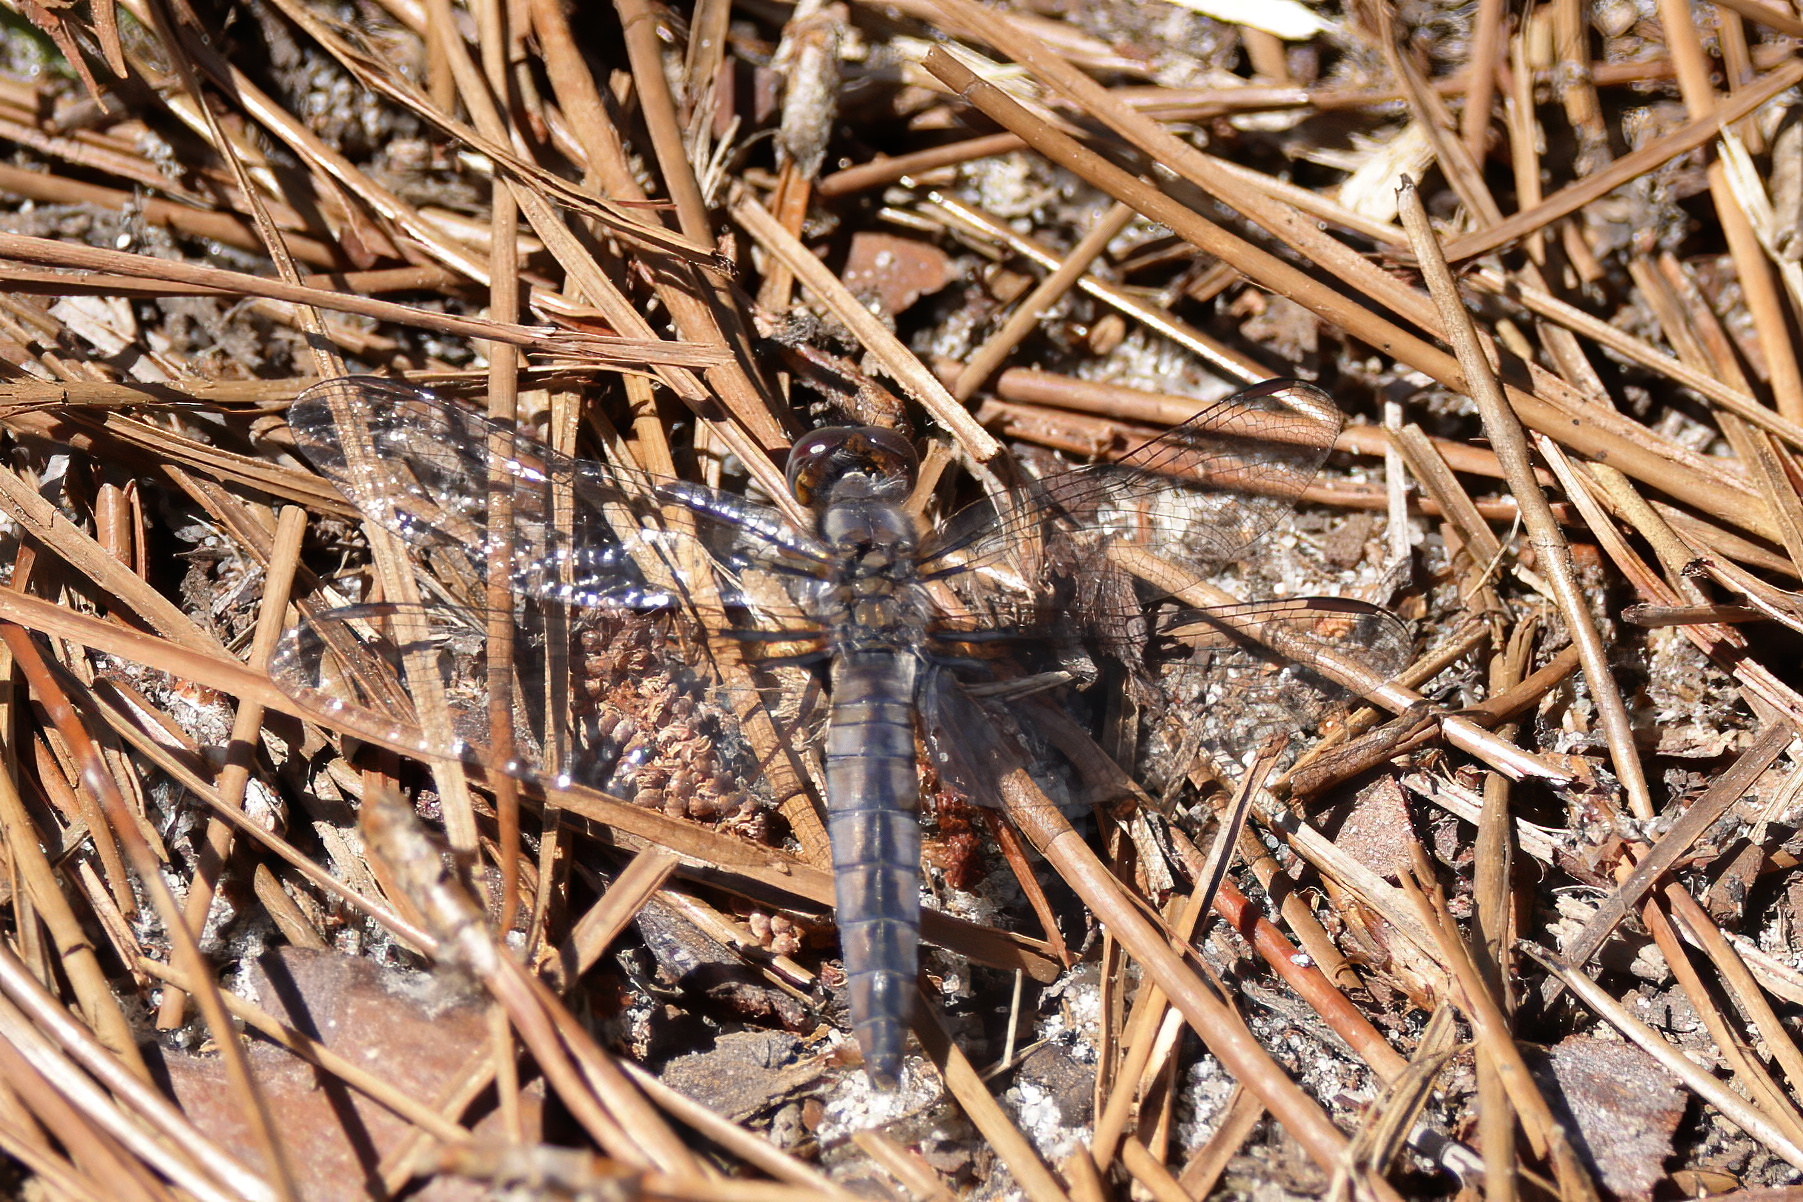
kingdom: Animalia
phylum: Arthropoda
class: Insecta
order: Odonata
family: Libellulidae
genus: Ladona
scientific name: Ladona deplanata
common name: Blue corporal
